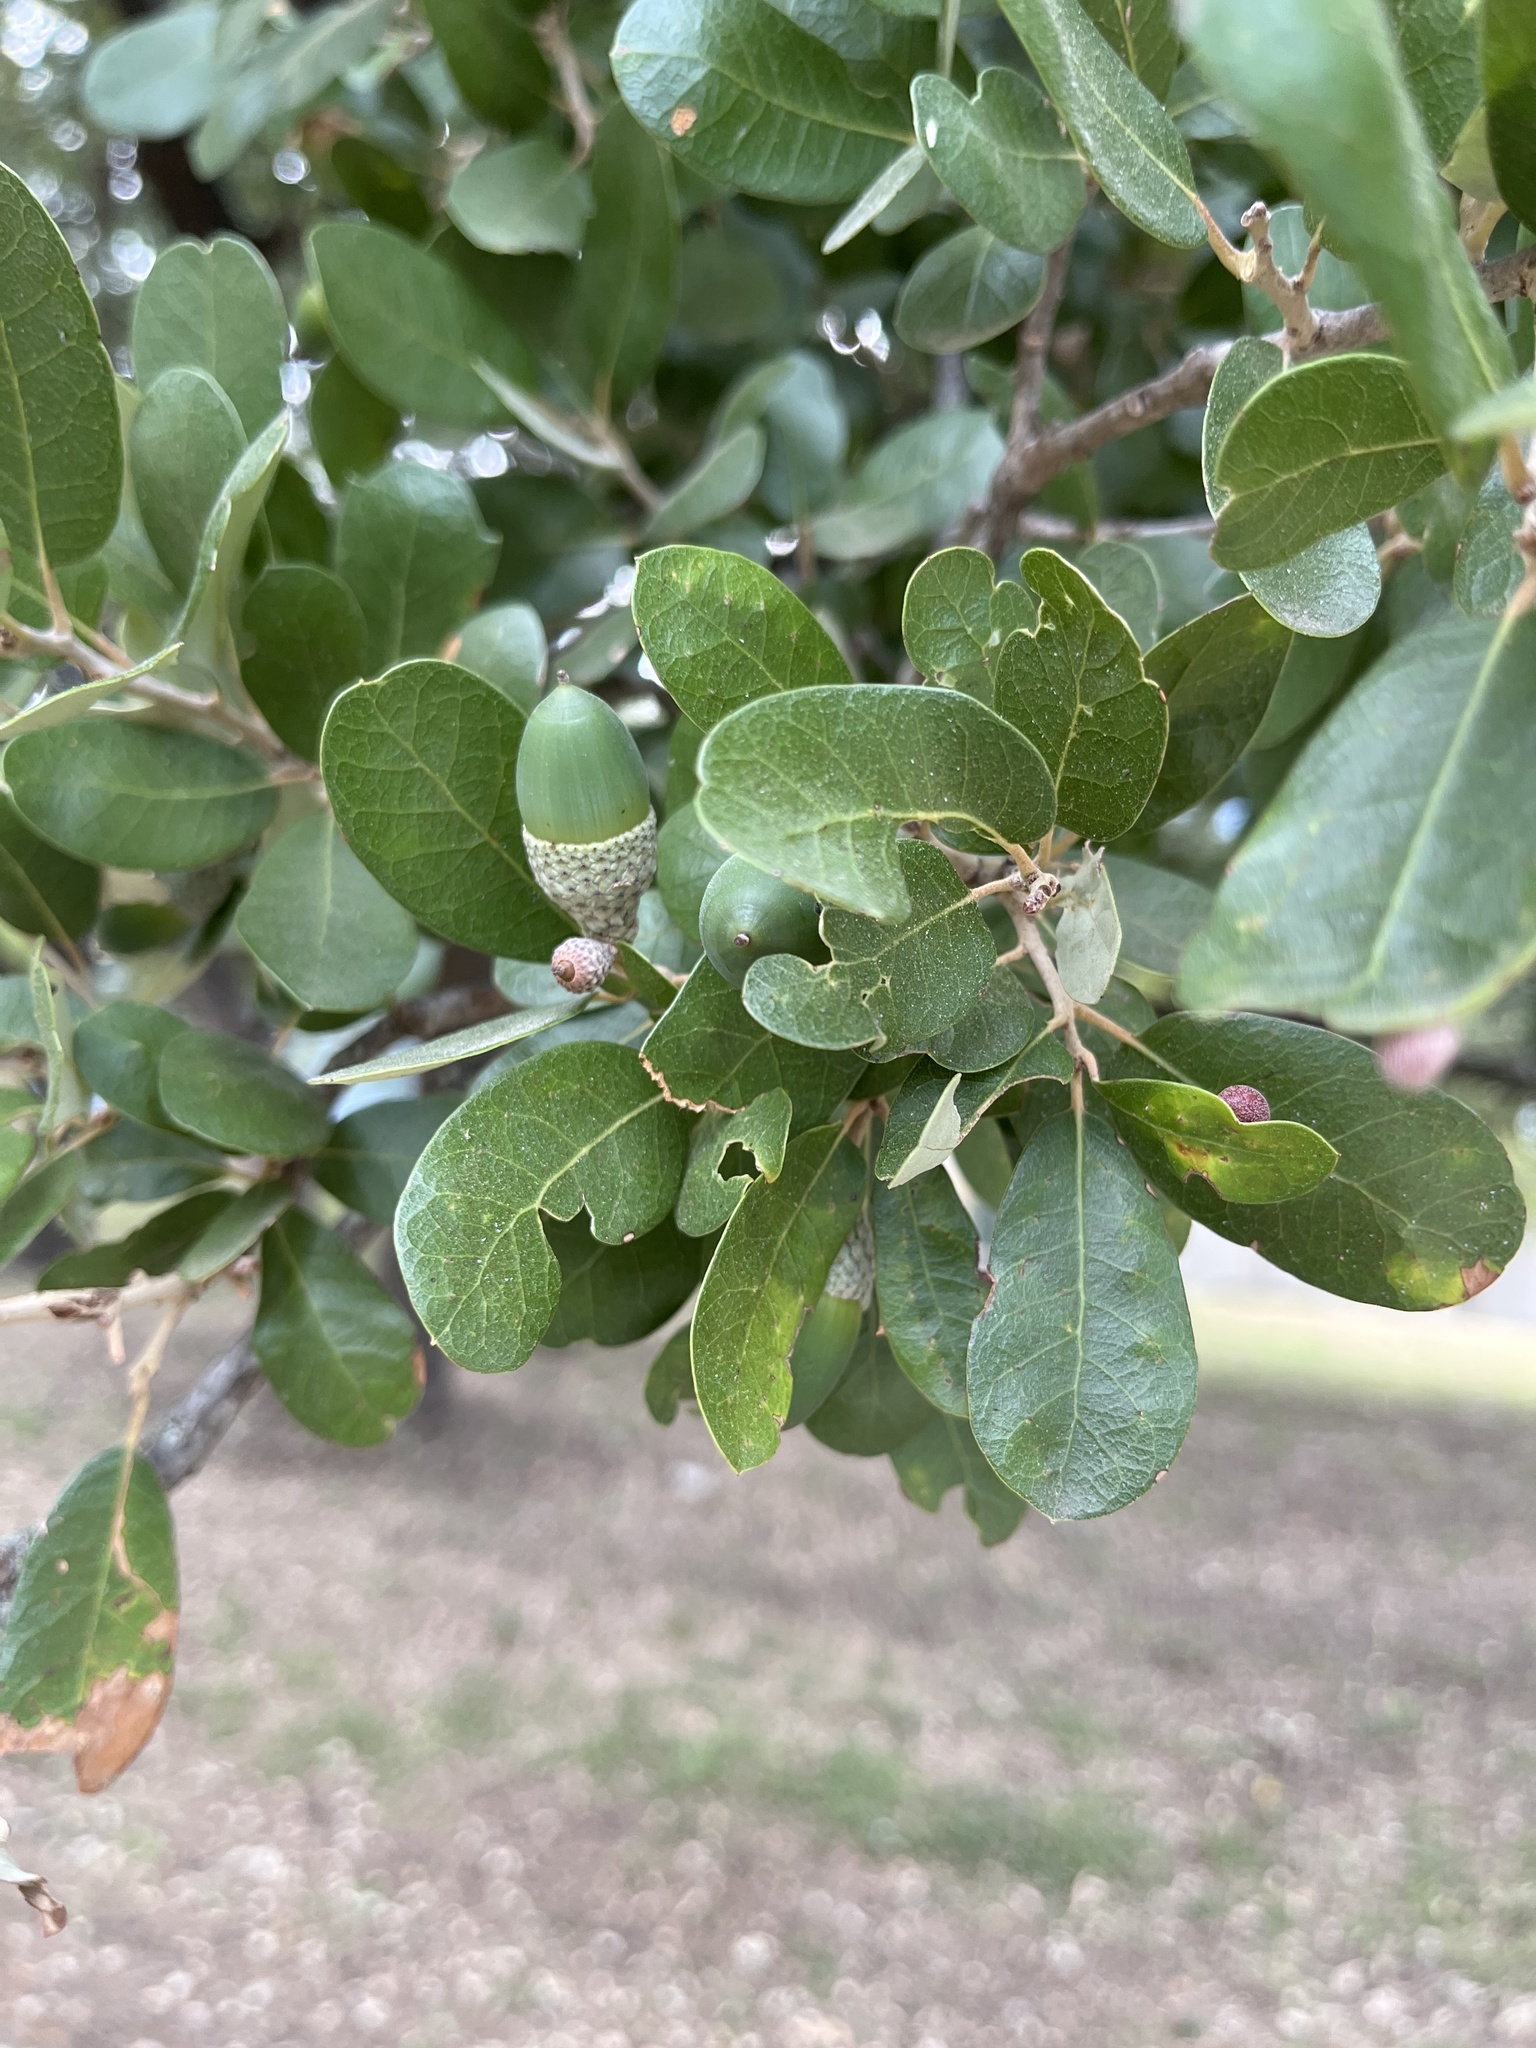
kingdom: Plantae
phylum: Tracheophyta
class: Magnoliopsida
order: Fagales
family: Fagaceae
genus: Quercus
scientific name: Quercus fusiformis
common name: Texas live oak
